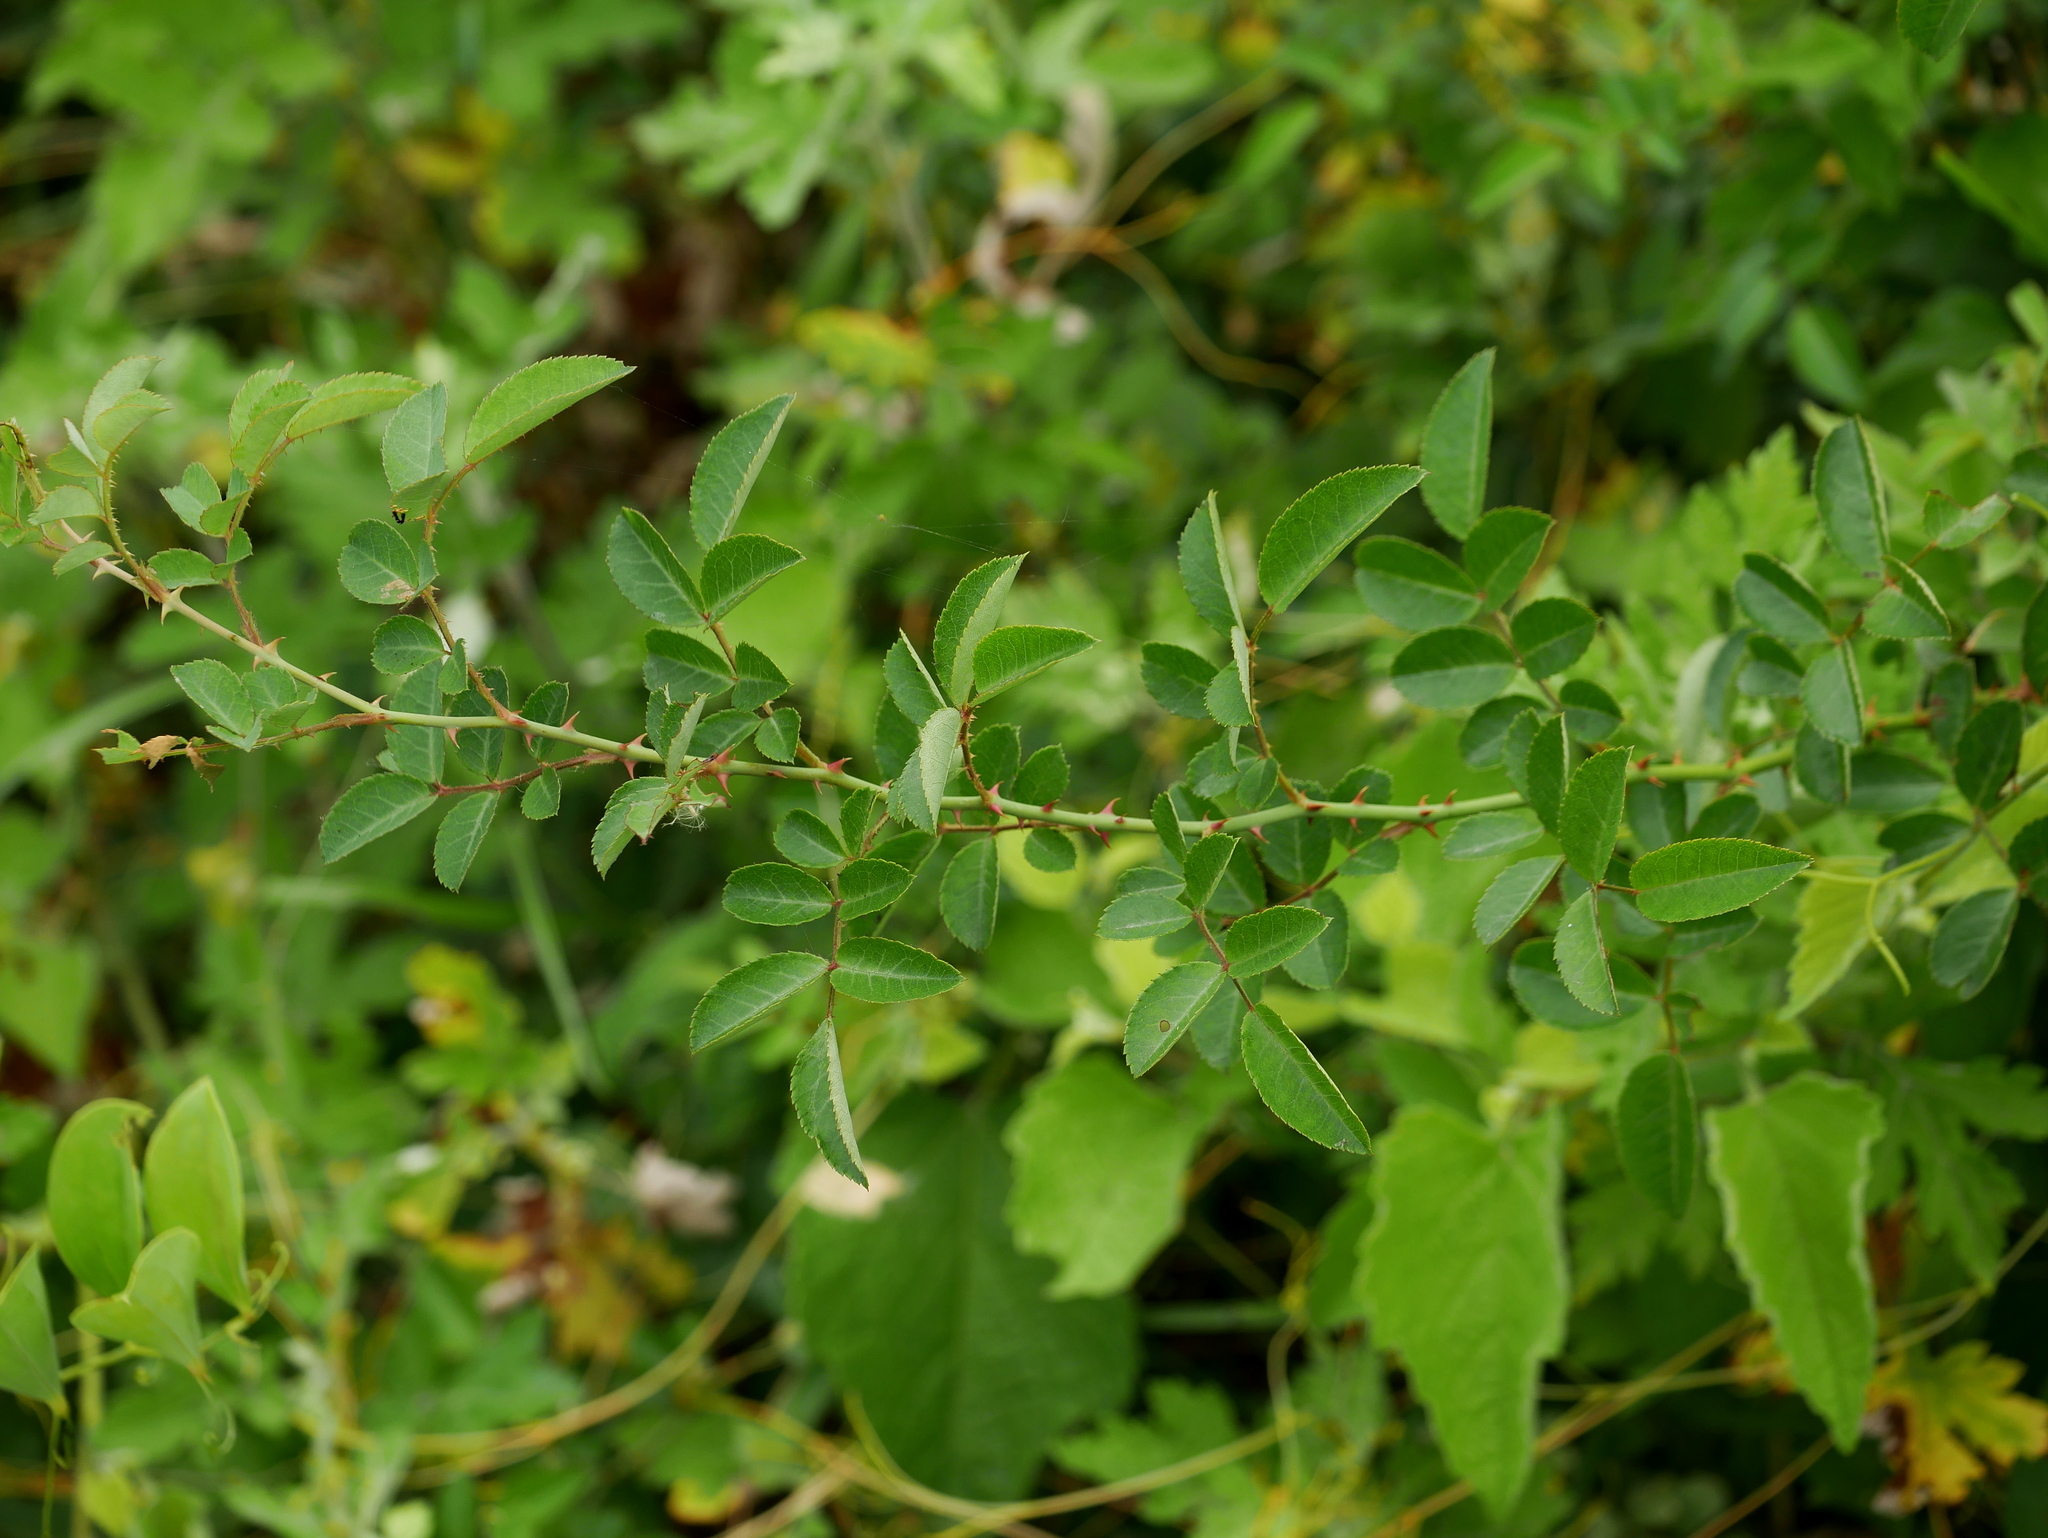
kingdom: Plantae
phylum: Tracheophyta
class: Magnoliopsida
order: Rosales
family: Rosaceae
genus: Rosa
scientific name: Rosa kwangtungensis
